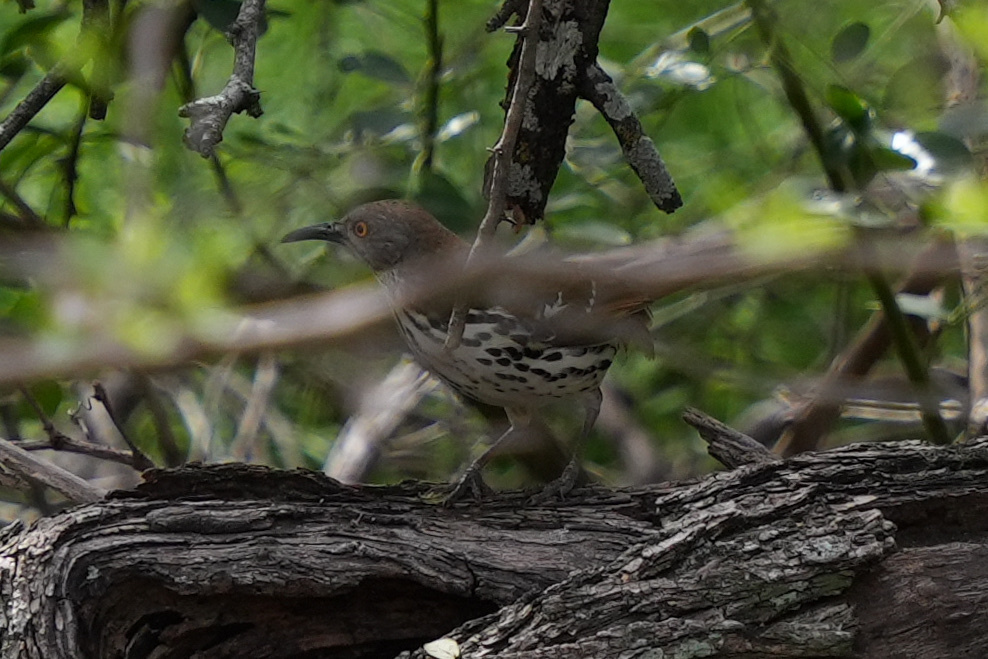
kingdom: Animalia
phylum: Chordata
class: Aves
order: Passeriformes
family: Mimidae
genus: Toxostoma
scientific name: Toxostoma longirostre
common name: Long-billed thrasher
